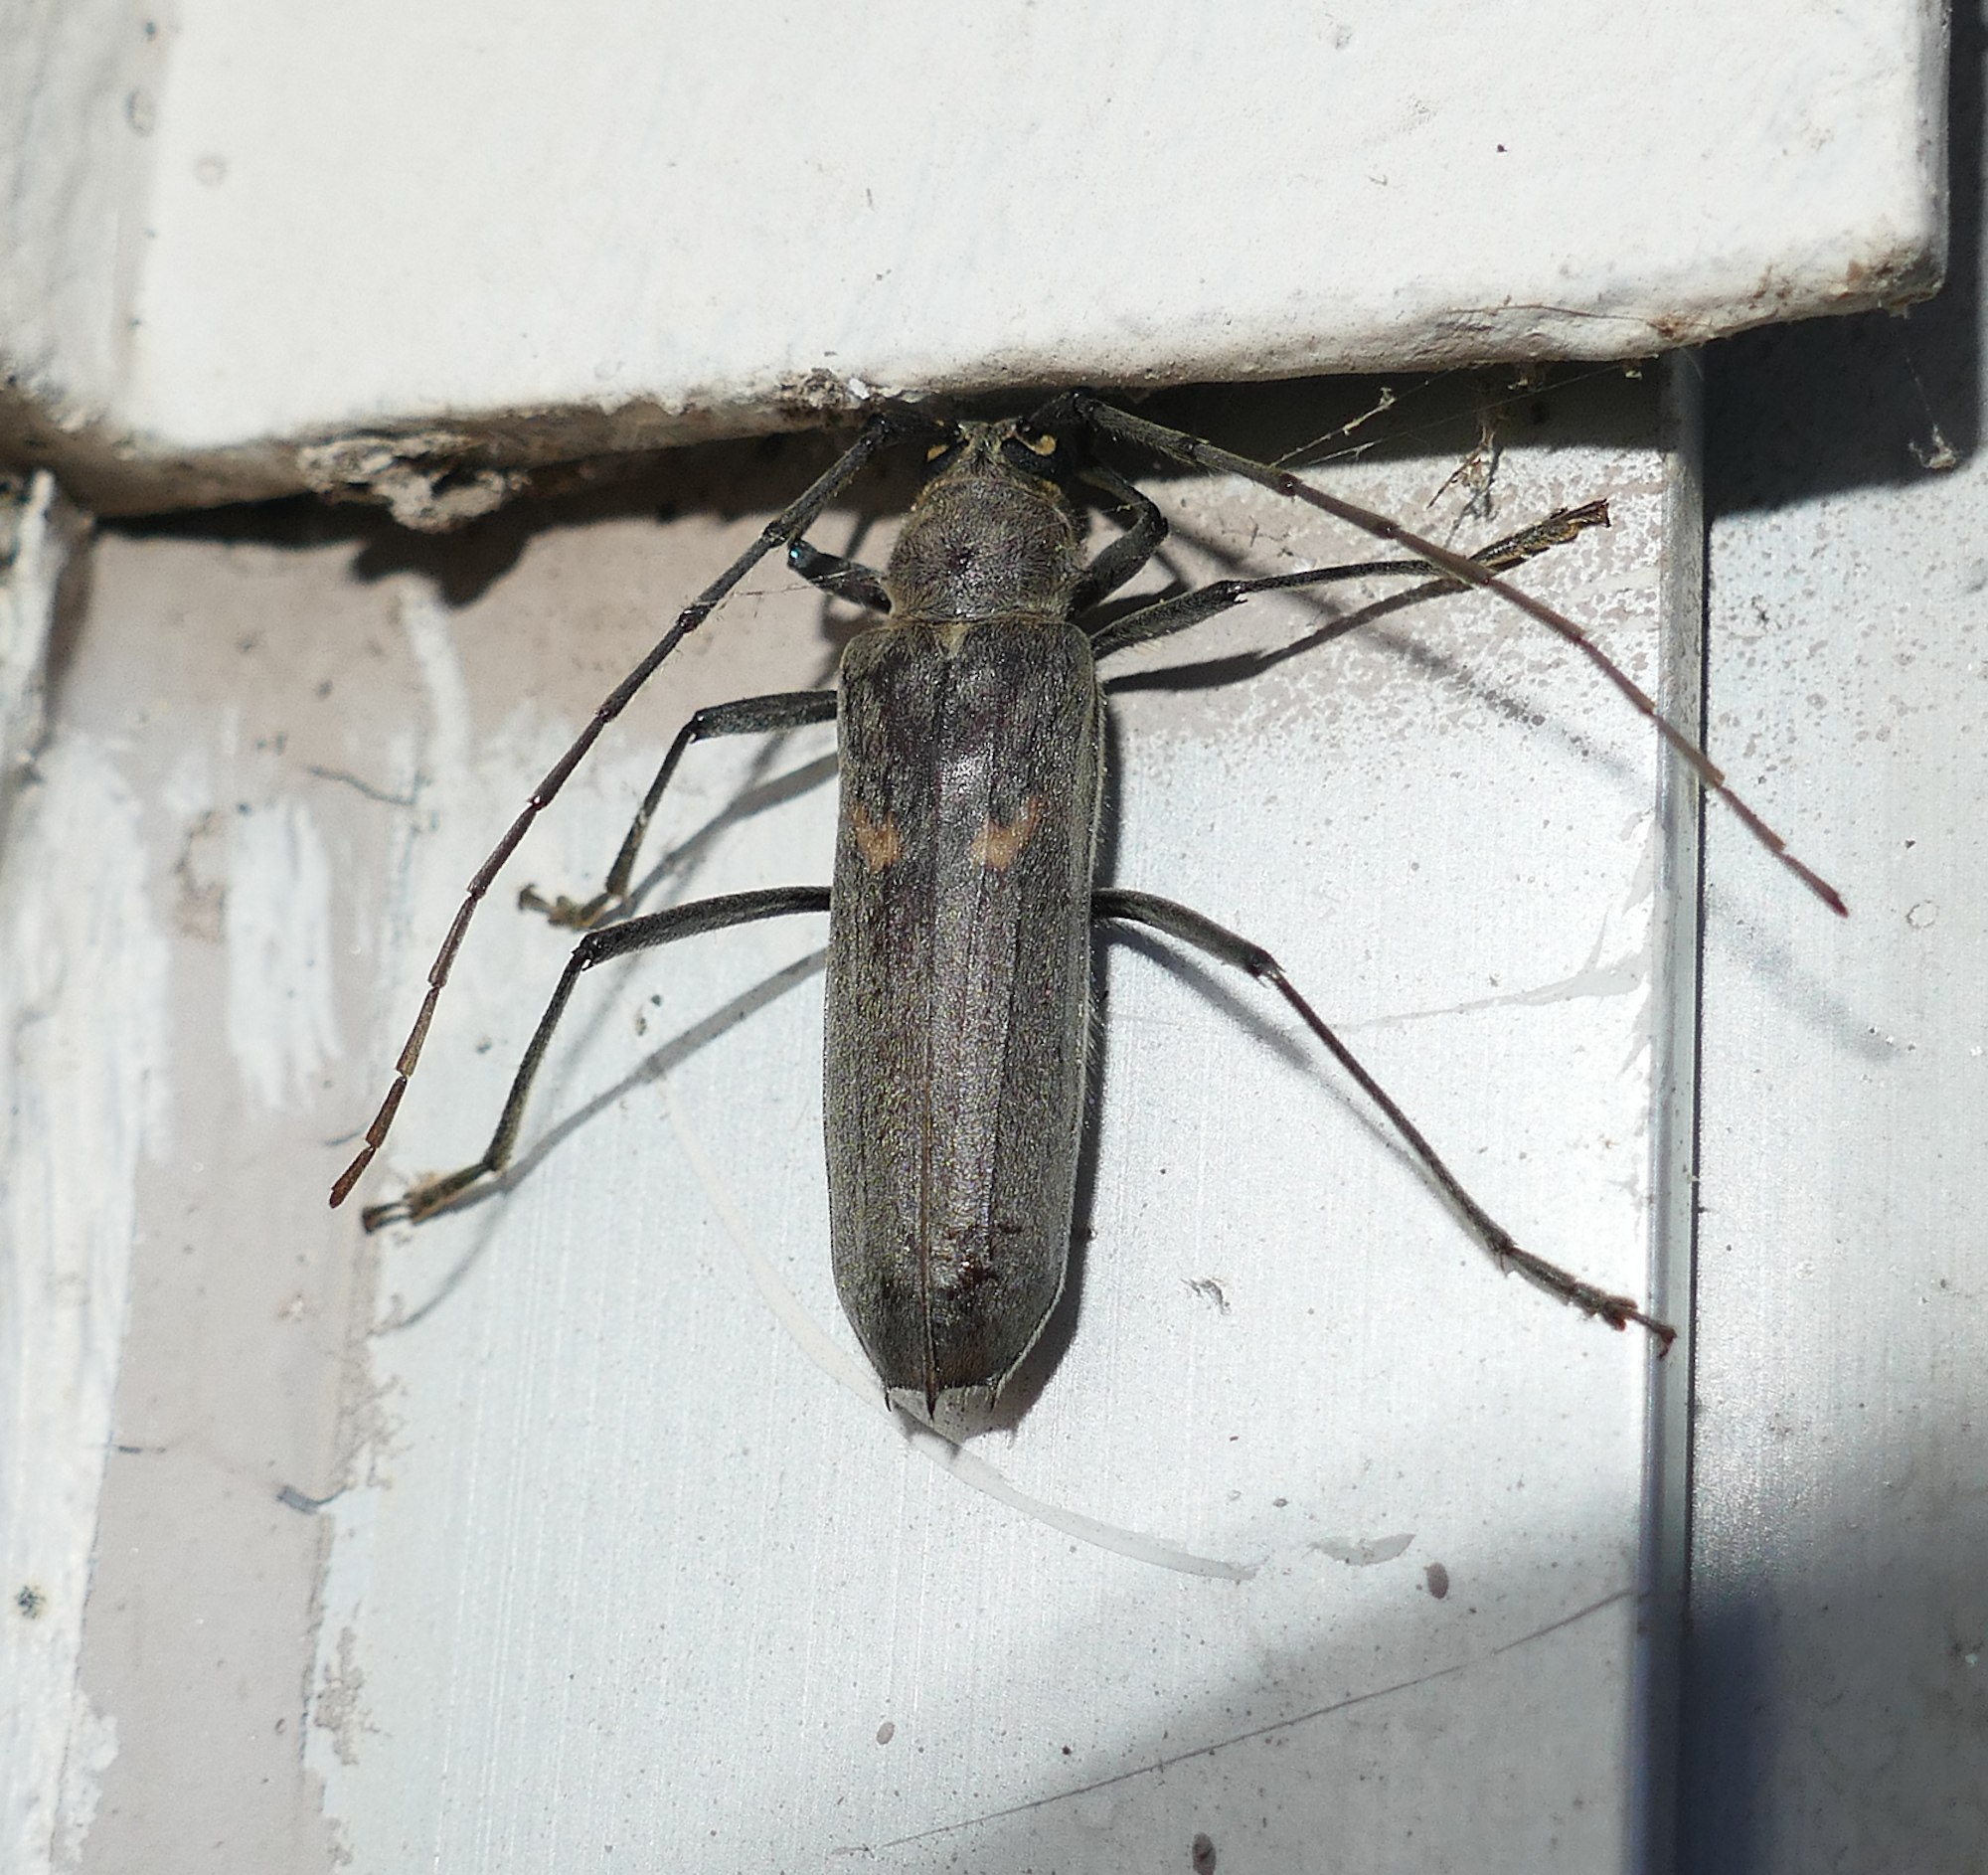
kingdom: Animalia
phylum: Arthropoda
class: Insecta
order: Coleoptera
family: Cerambycidae
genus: Knulliana
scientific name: Knulliana cincta
